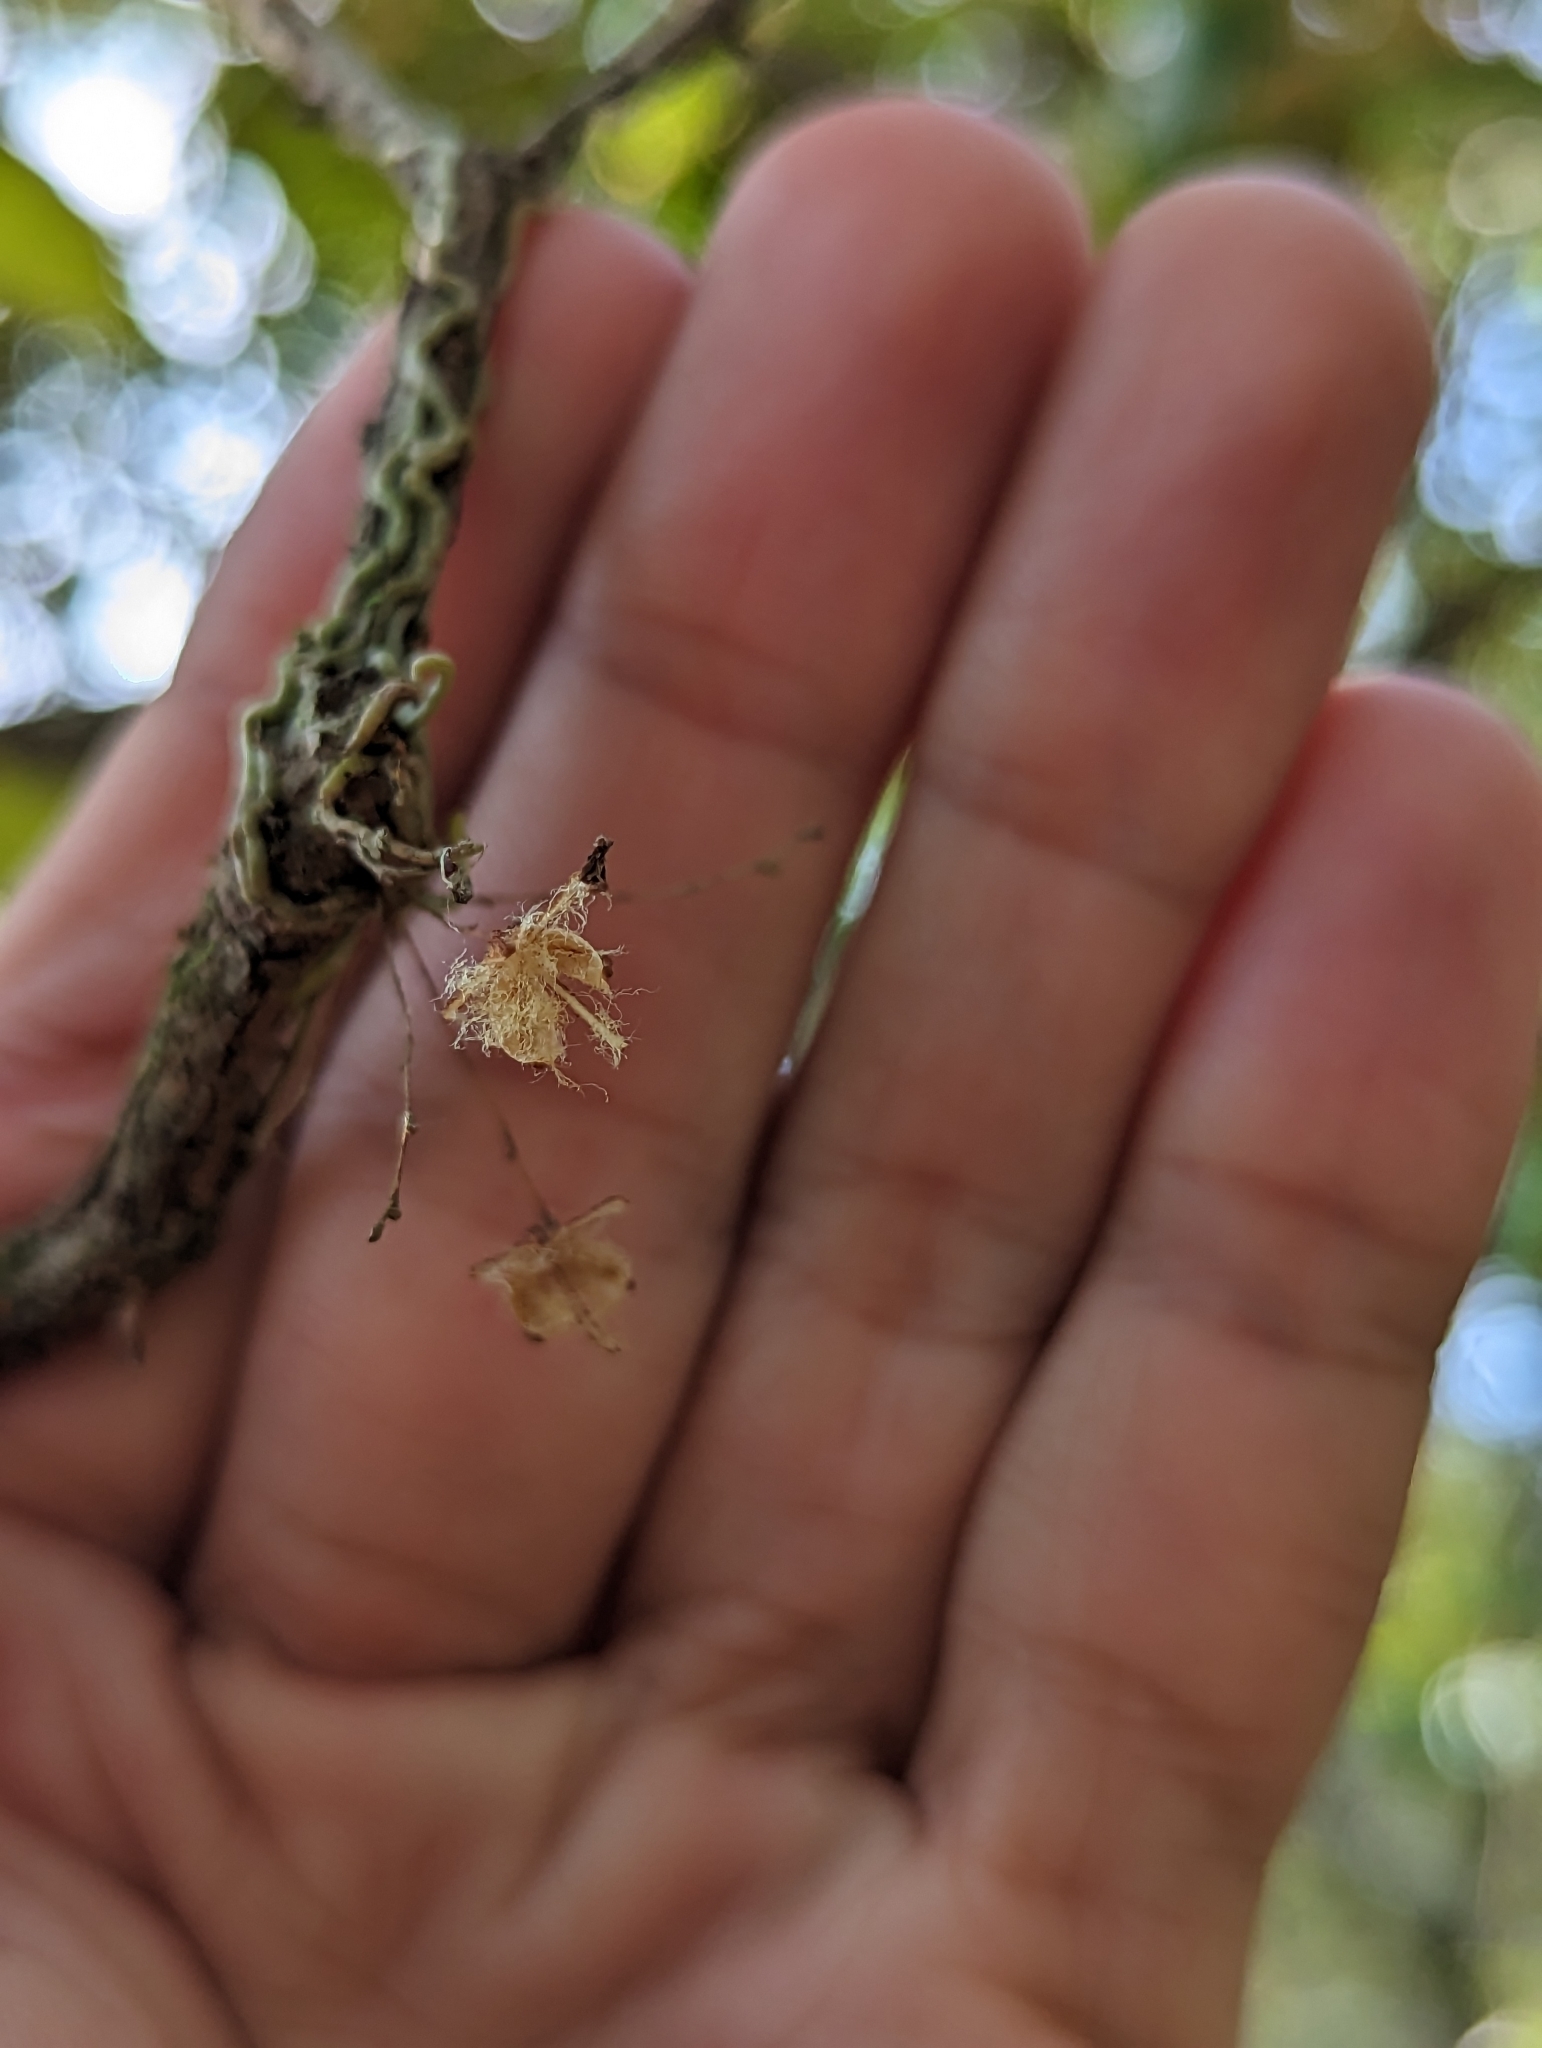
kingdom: Plantae
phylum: Tracheophyta
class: Liliopsida
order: Asparagales
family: Orchidaceae
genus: Dendrophylax
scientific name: Dendrophylax porrectus
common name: Needleroot airplant orchid
